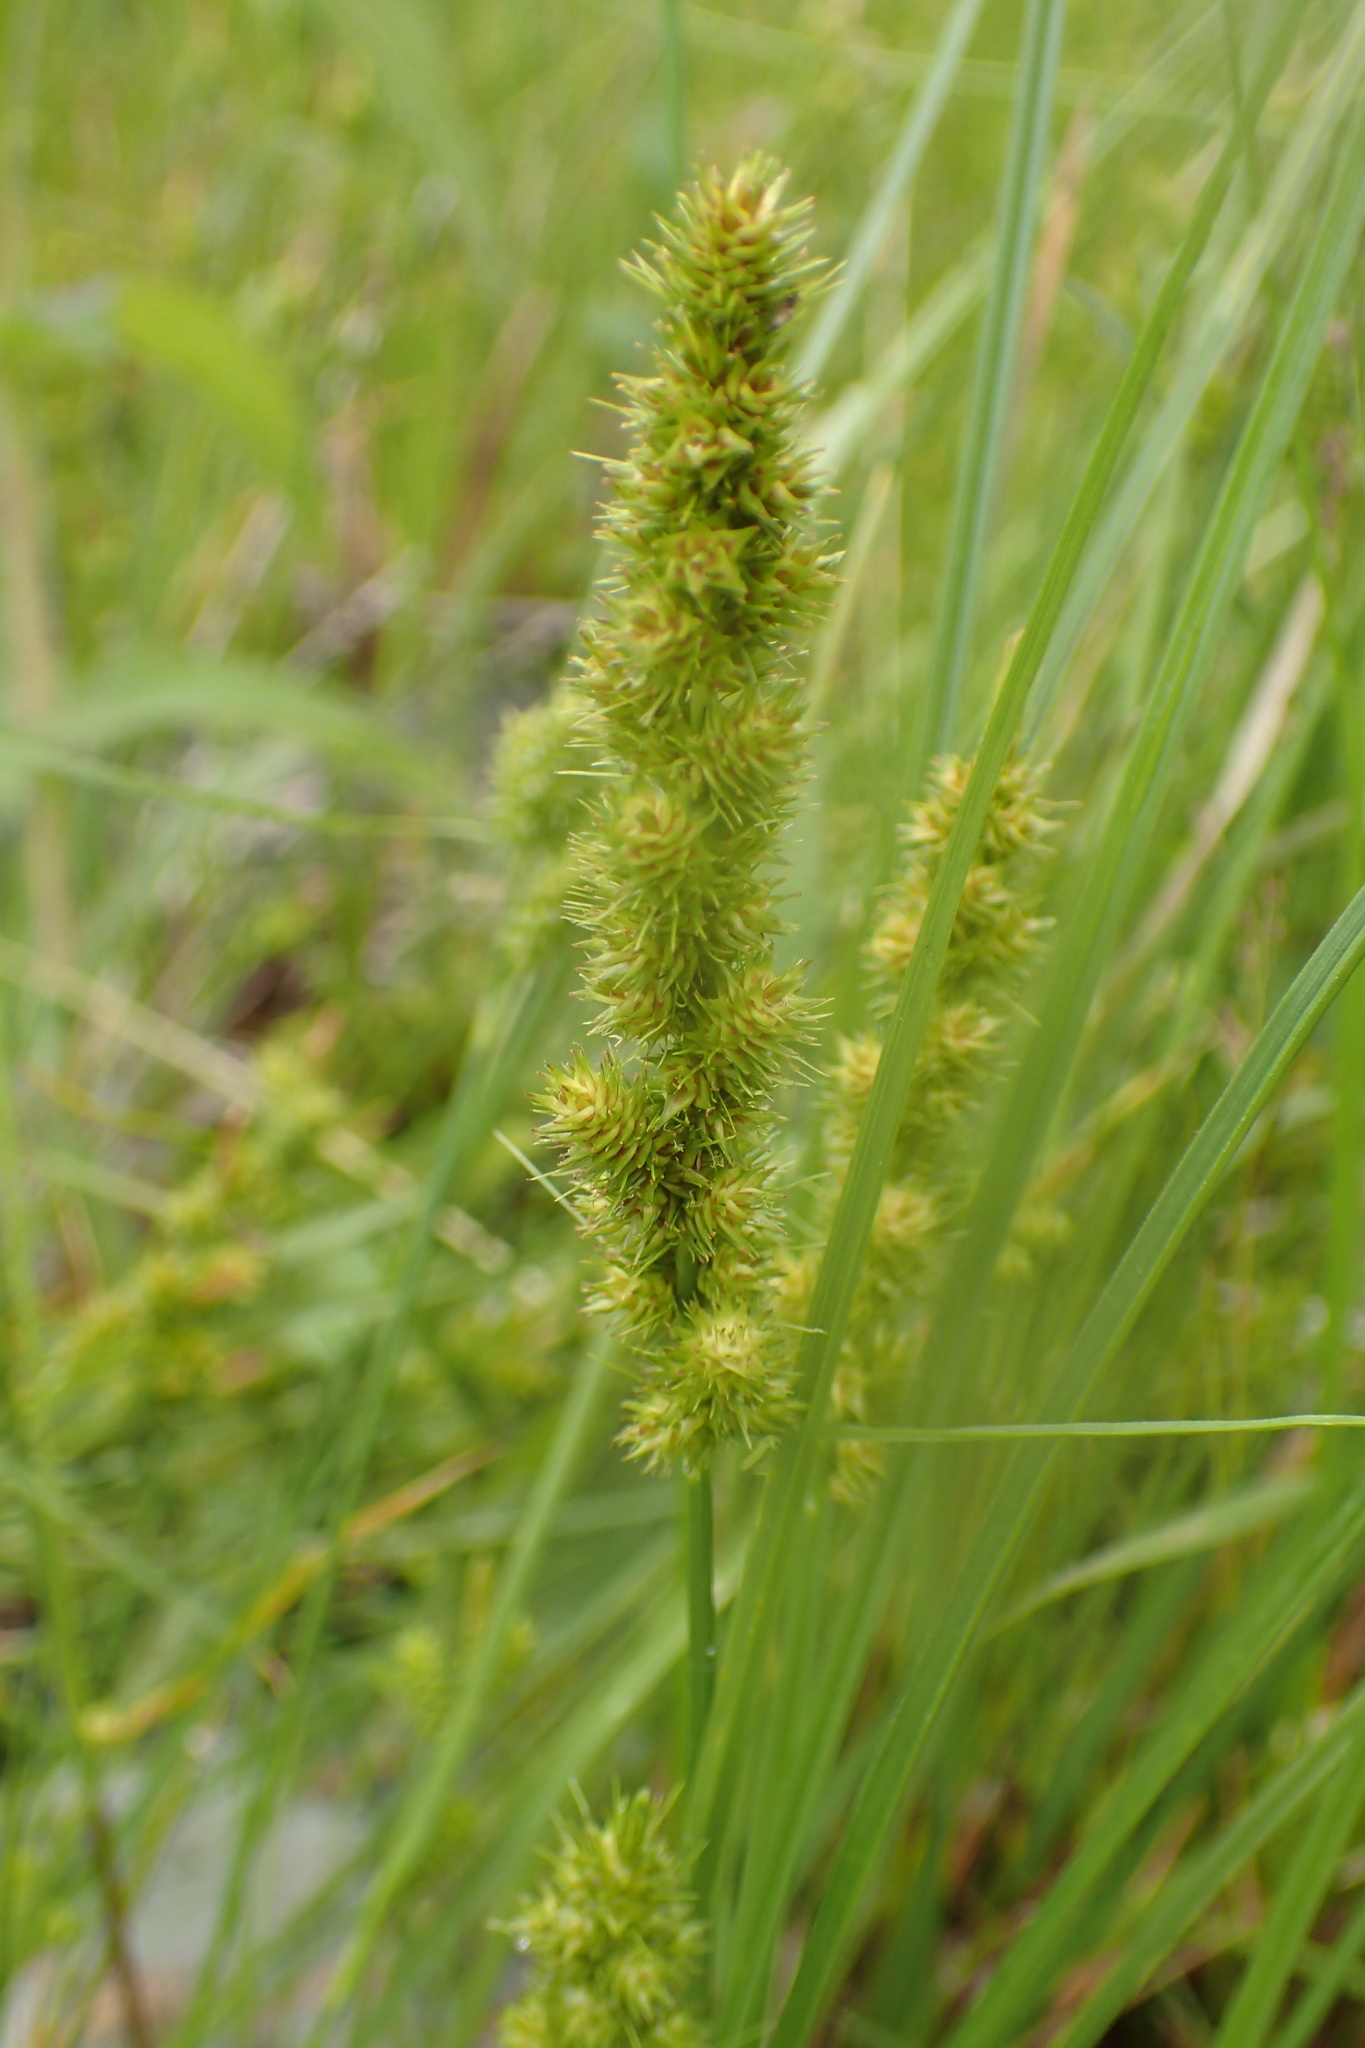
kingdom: Plantae
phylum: Tracheophyta
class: Liliopsida
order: Poales
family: Cyperaceae
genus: Carex
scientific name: Carex vulpinoidea
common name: American fox-sedge
